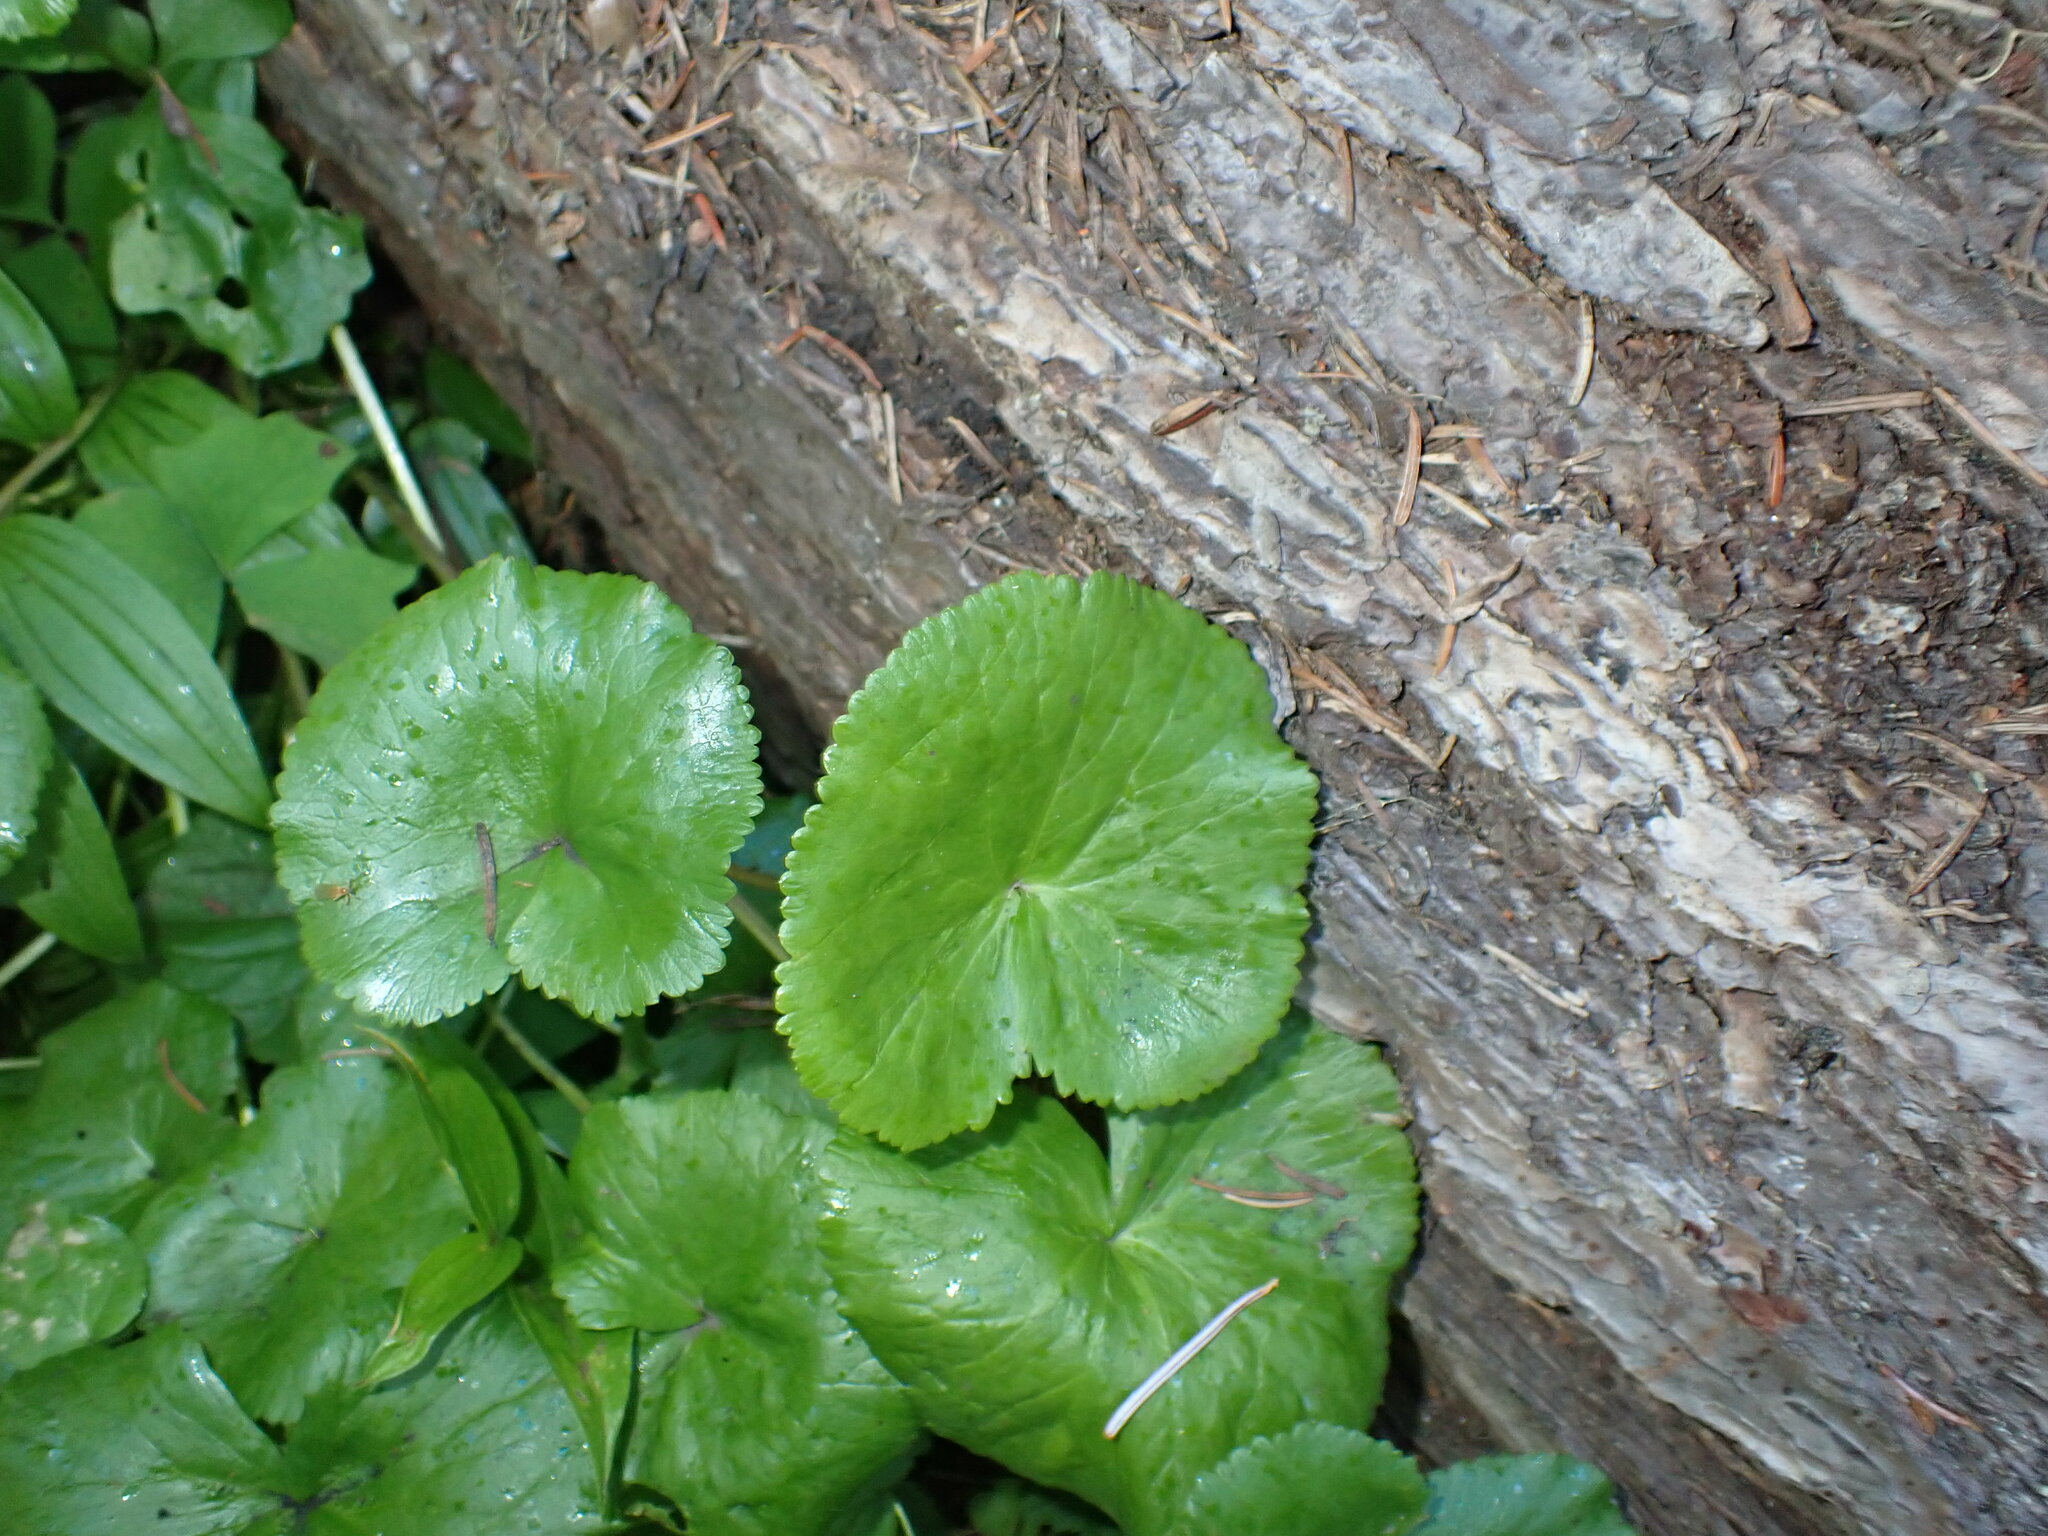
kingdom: Plantae
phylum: Tracheophyta
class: Magnoliopsida
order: Ranunculales
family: Ranunculaceae
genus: Caltha
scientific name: Caltha biflora
